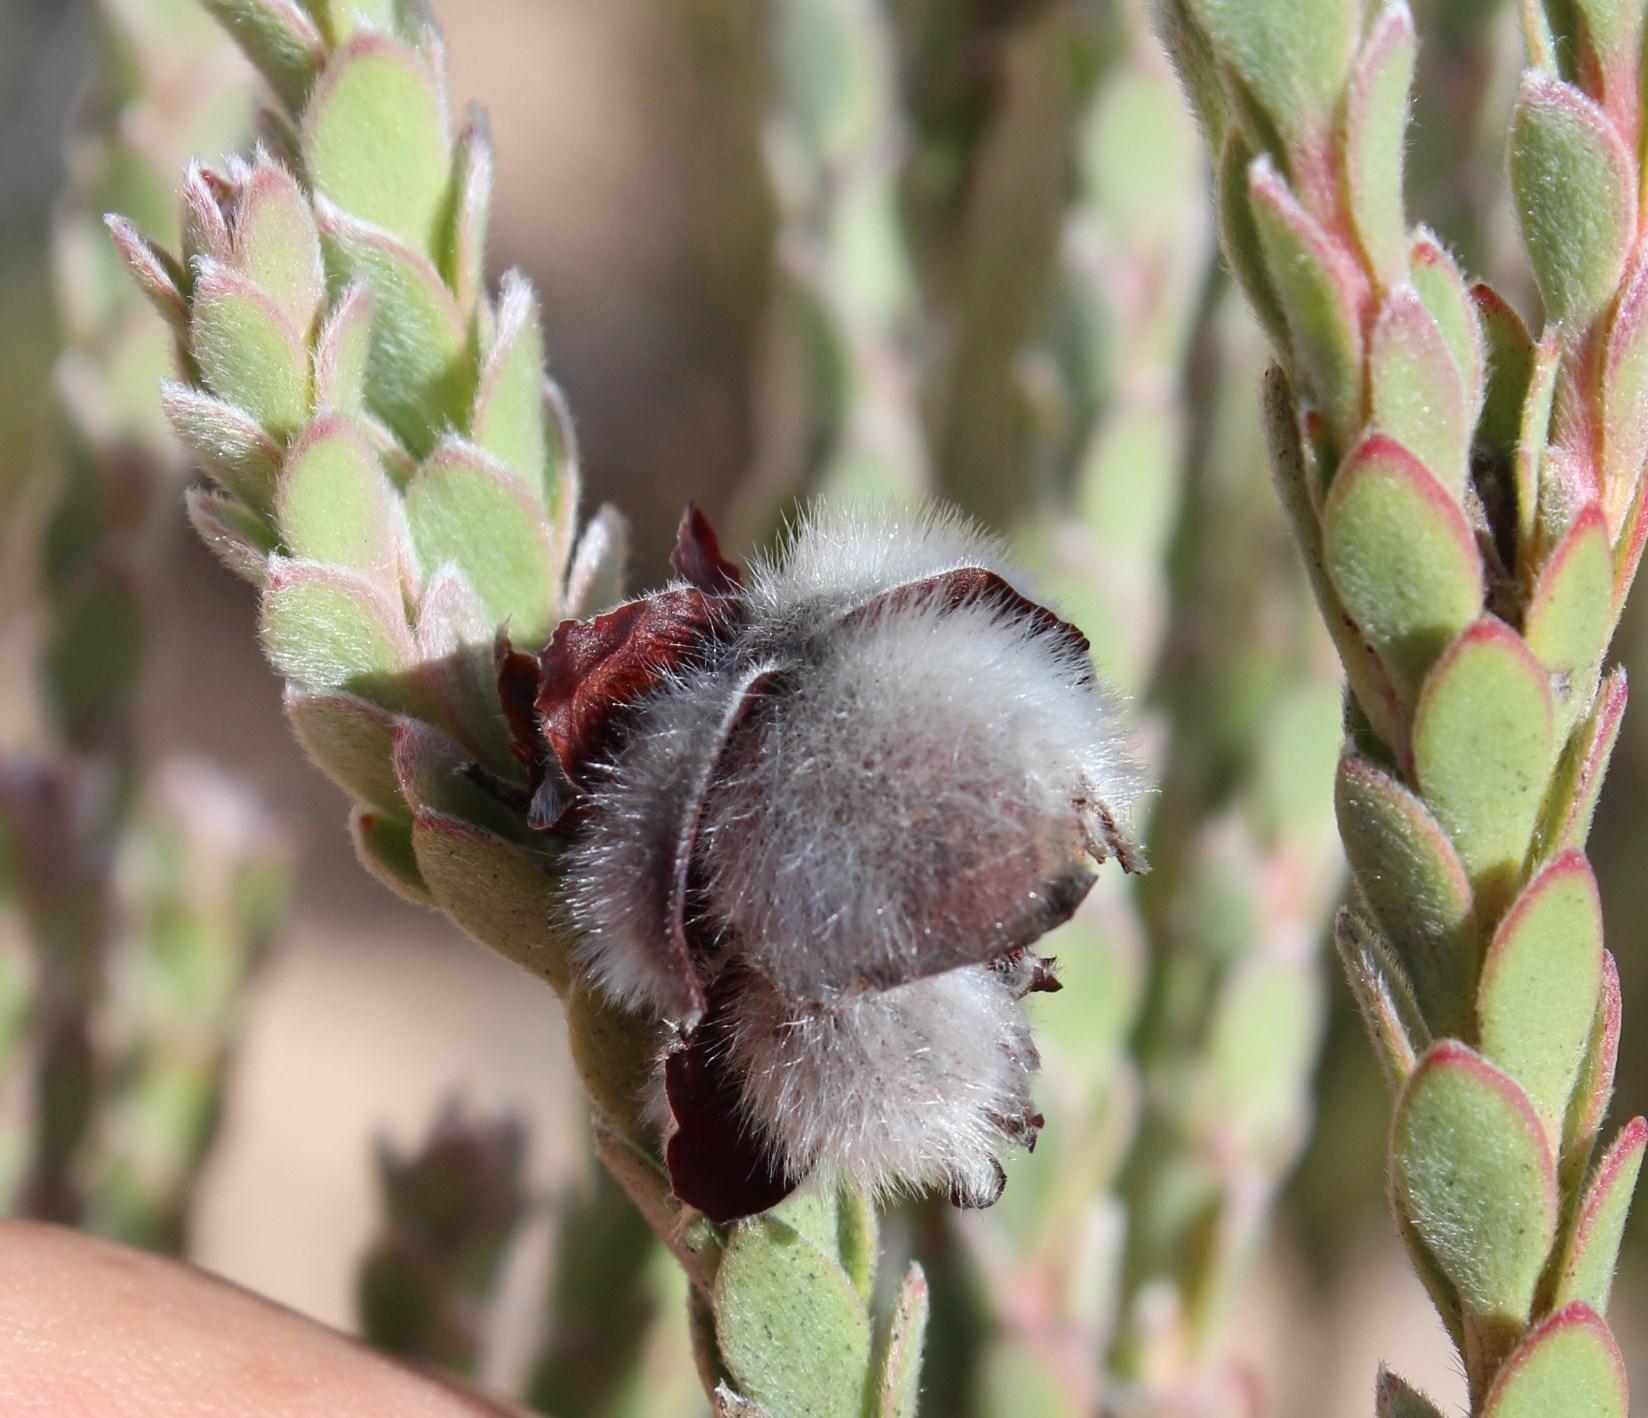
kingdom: Plantae
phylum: Tracheophyta
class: Magnoliopsida
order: Proteales
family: Proteaceae
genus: Leucadendron
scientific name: Leucadendron dubium
